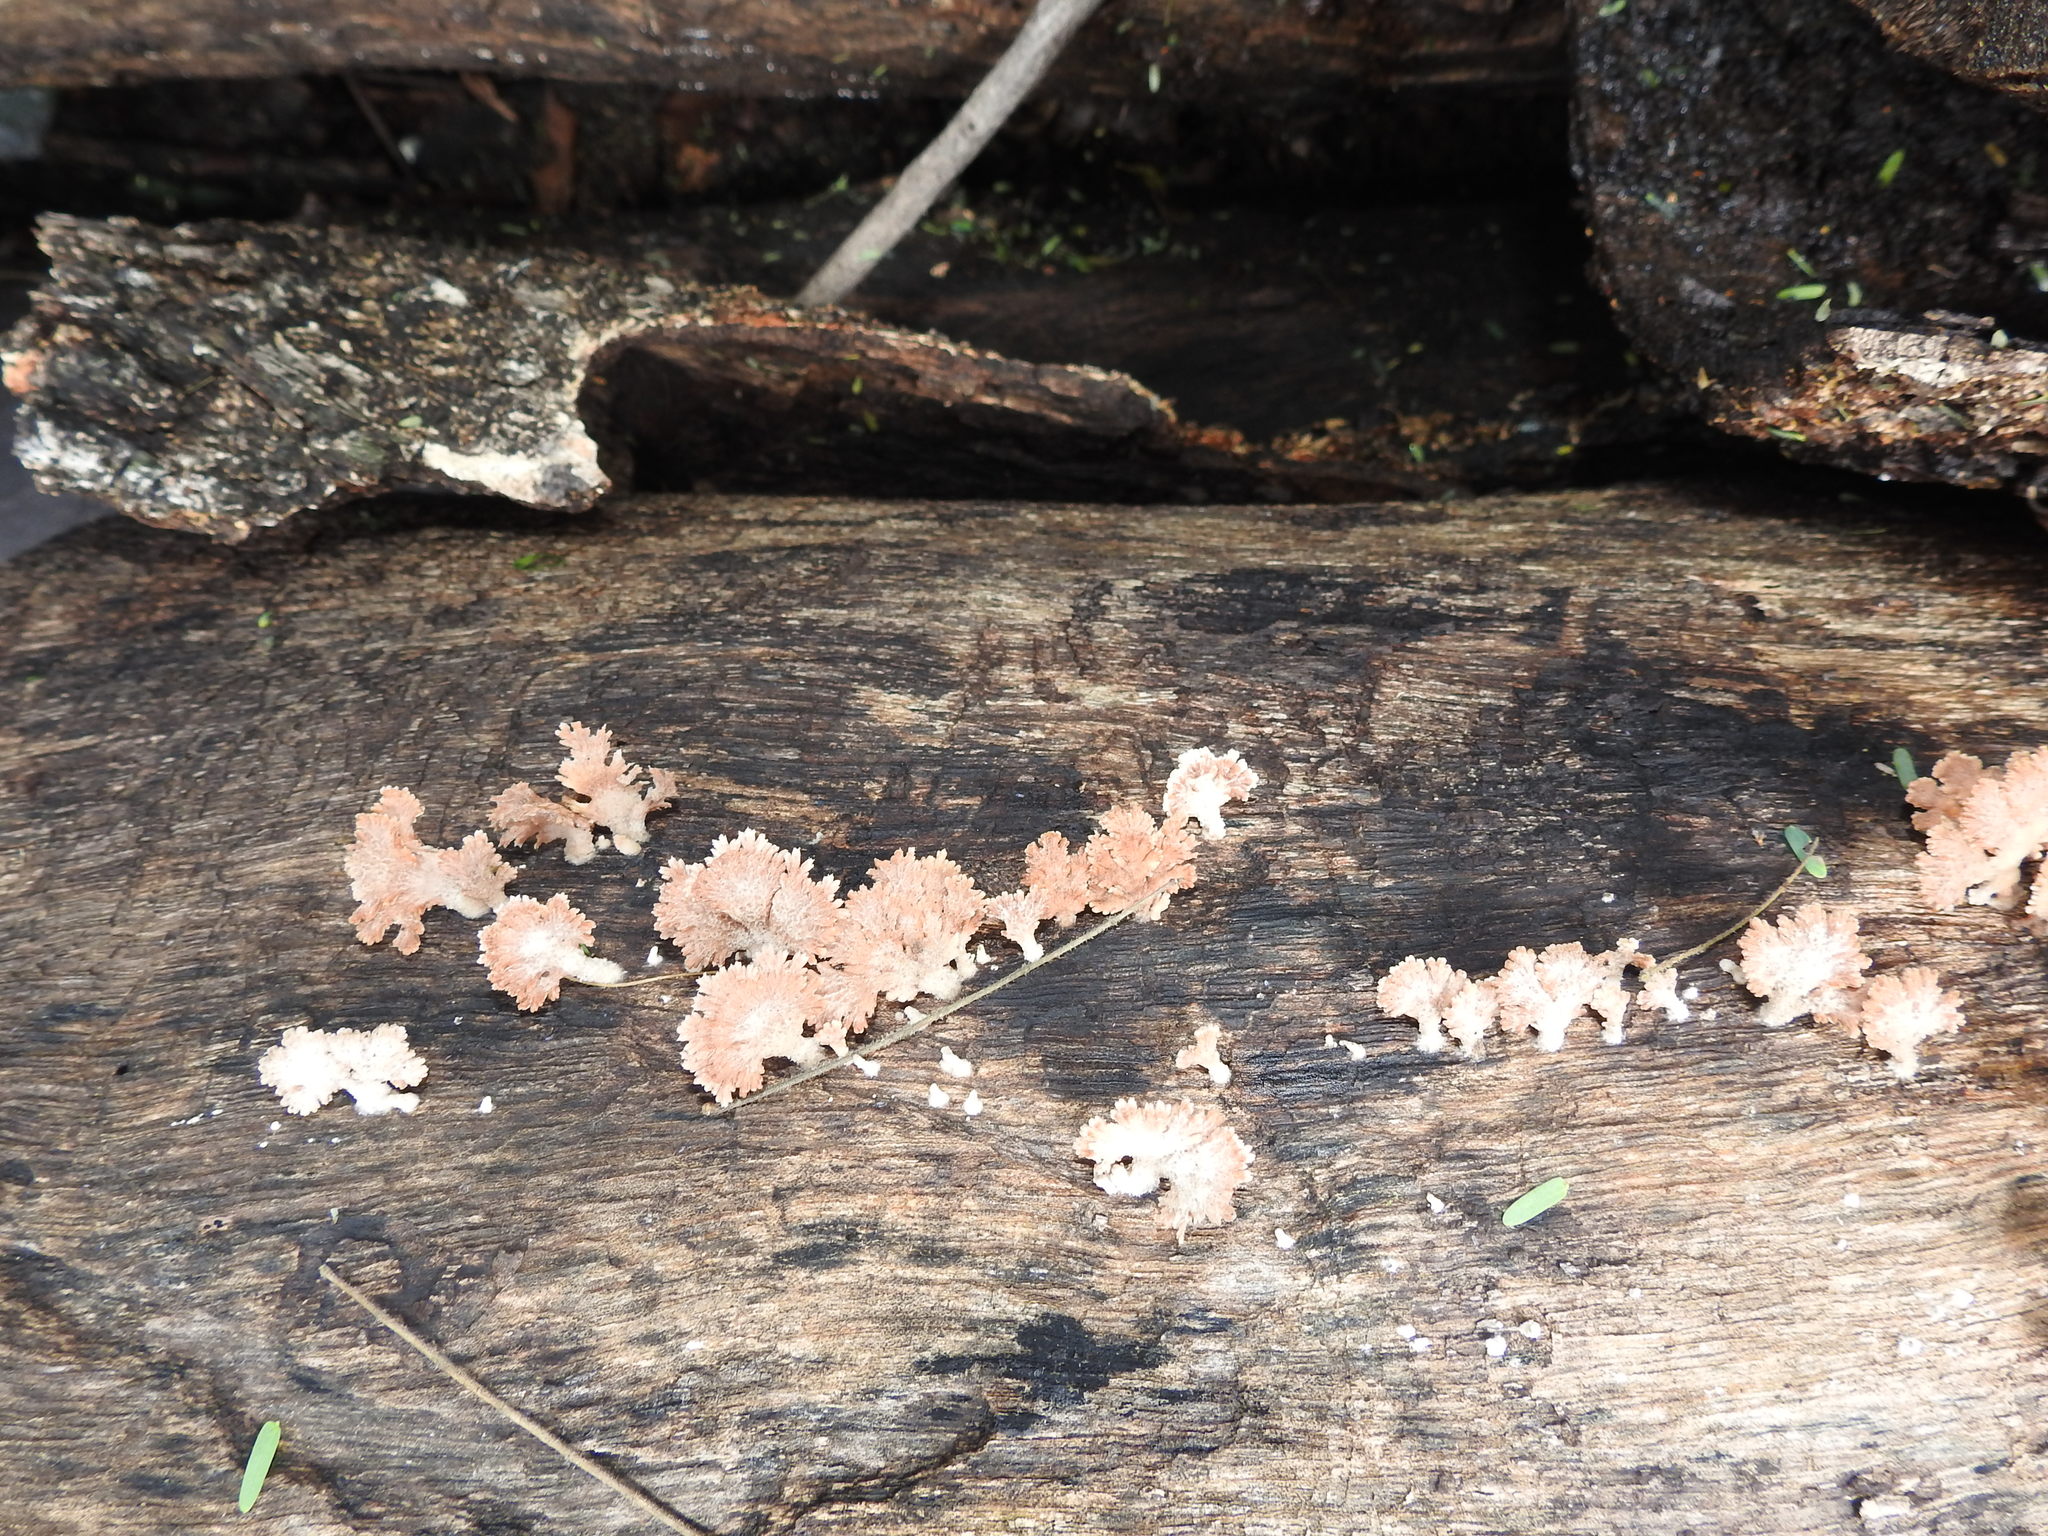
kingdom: Fungi
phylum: Basidiomycota
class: Agaricomycetes
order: Agaricales
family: Schizophyllaceae
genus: Schizophyllum
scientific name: Schizophyllum commune
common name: Common porecrust
